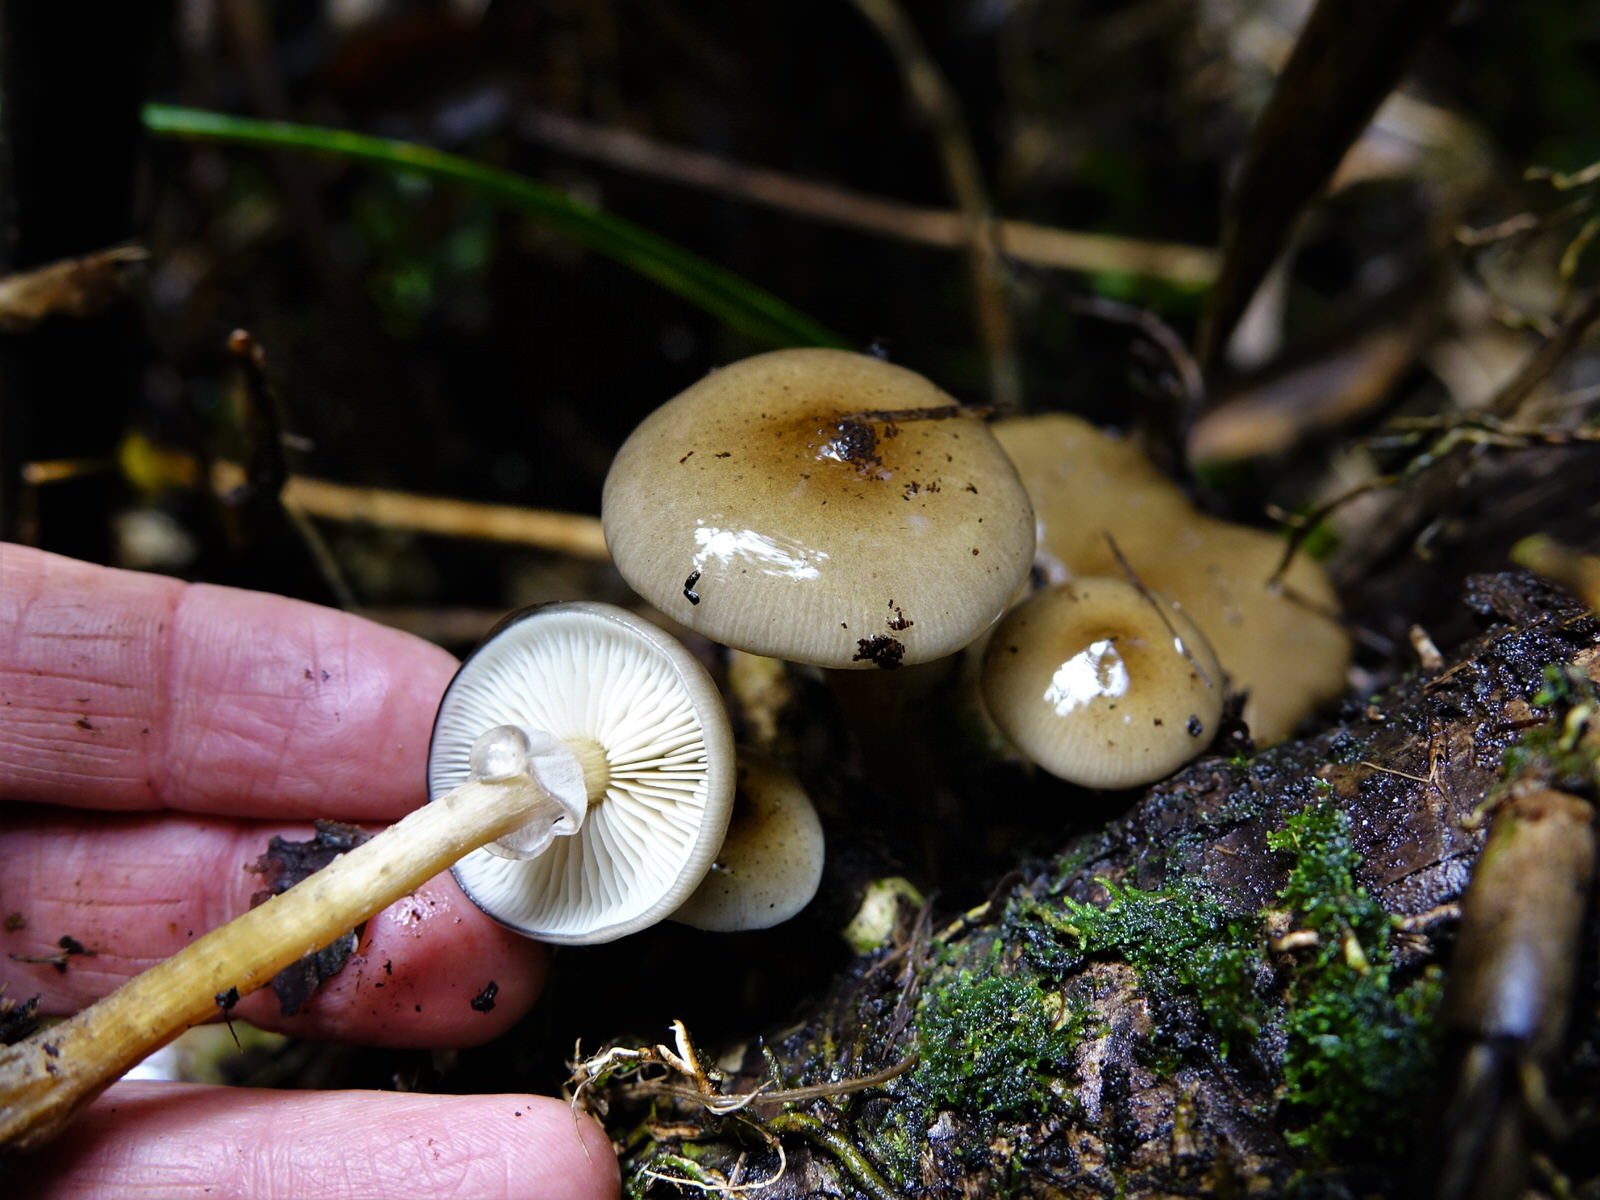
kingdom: Fungi
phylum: Basidiomycota
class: Agaricomycetes
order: Agaricales
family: Physalacriaceae
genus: Armillaria
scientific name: Armillaria novae-zelandiae
